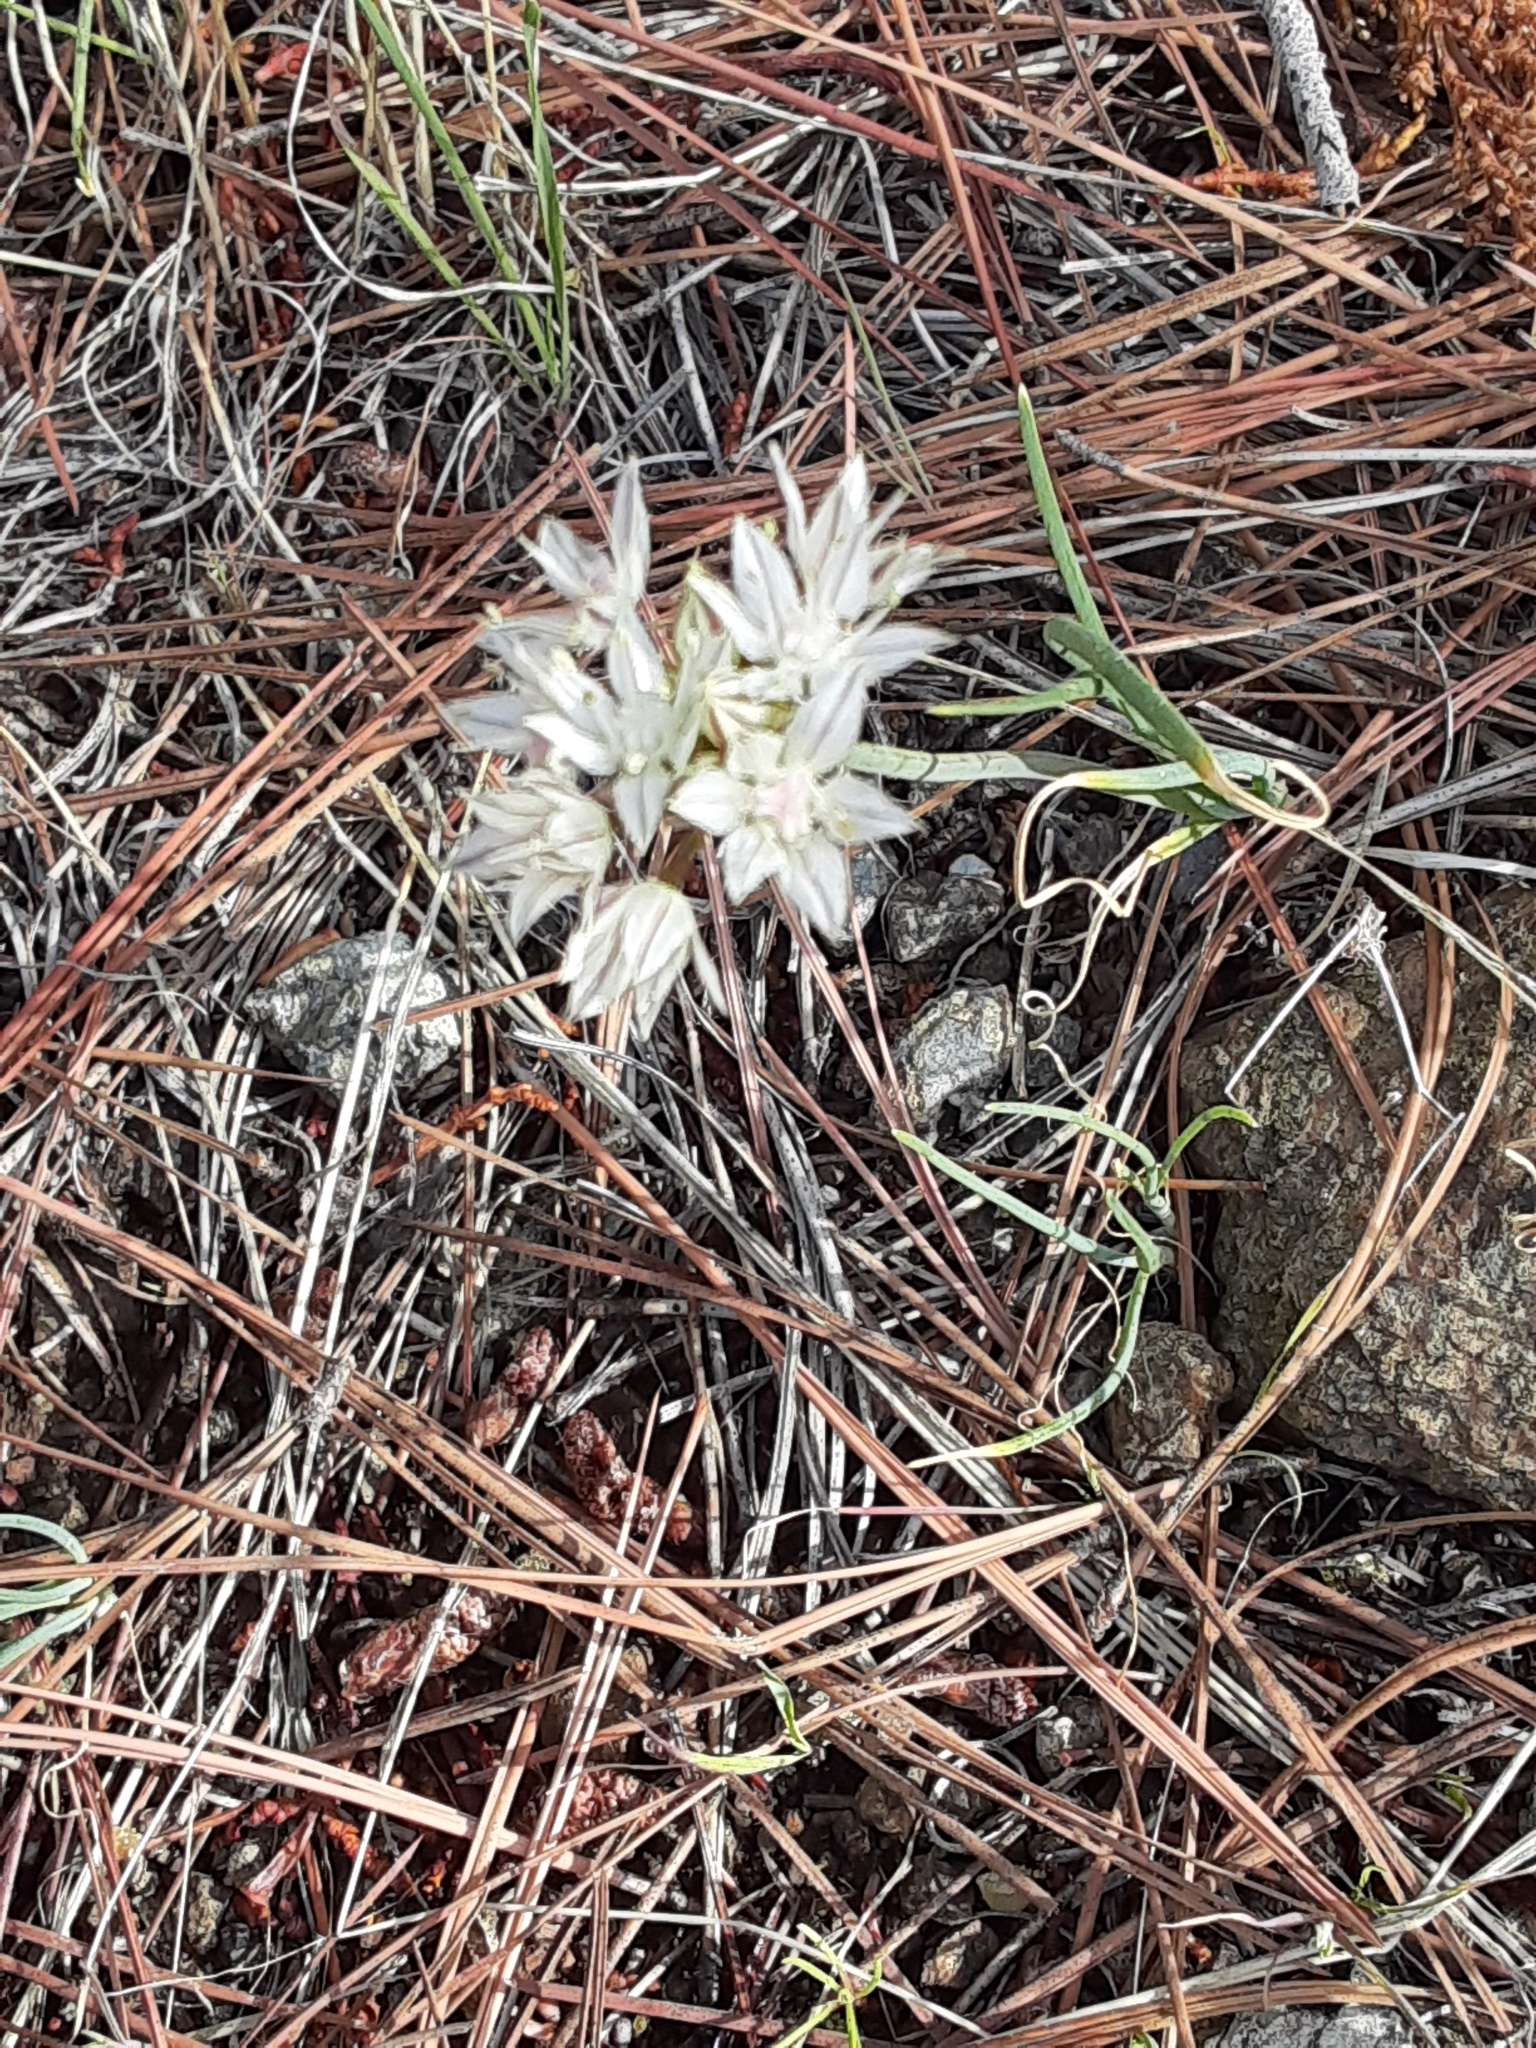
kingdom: Plantae
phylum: Tracheophyta
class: Liliopsida
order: Asparagales
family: Amaryllidaceae
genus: Allium
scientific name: Allium haematochiton
